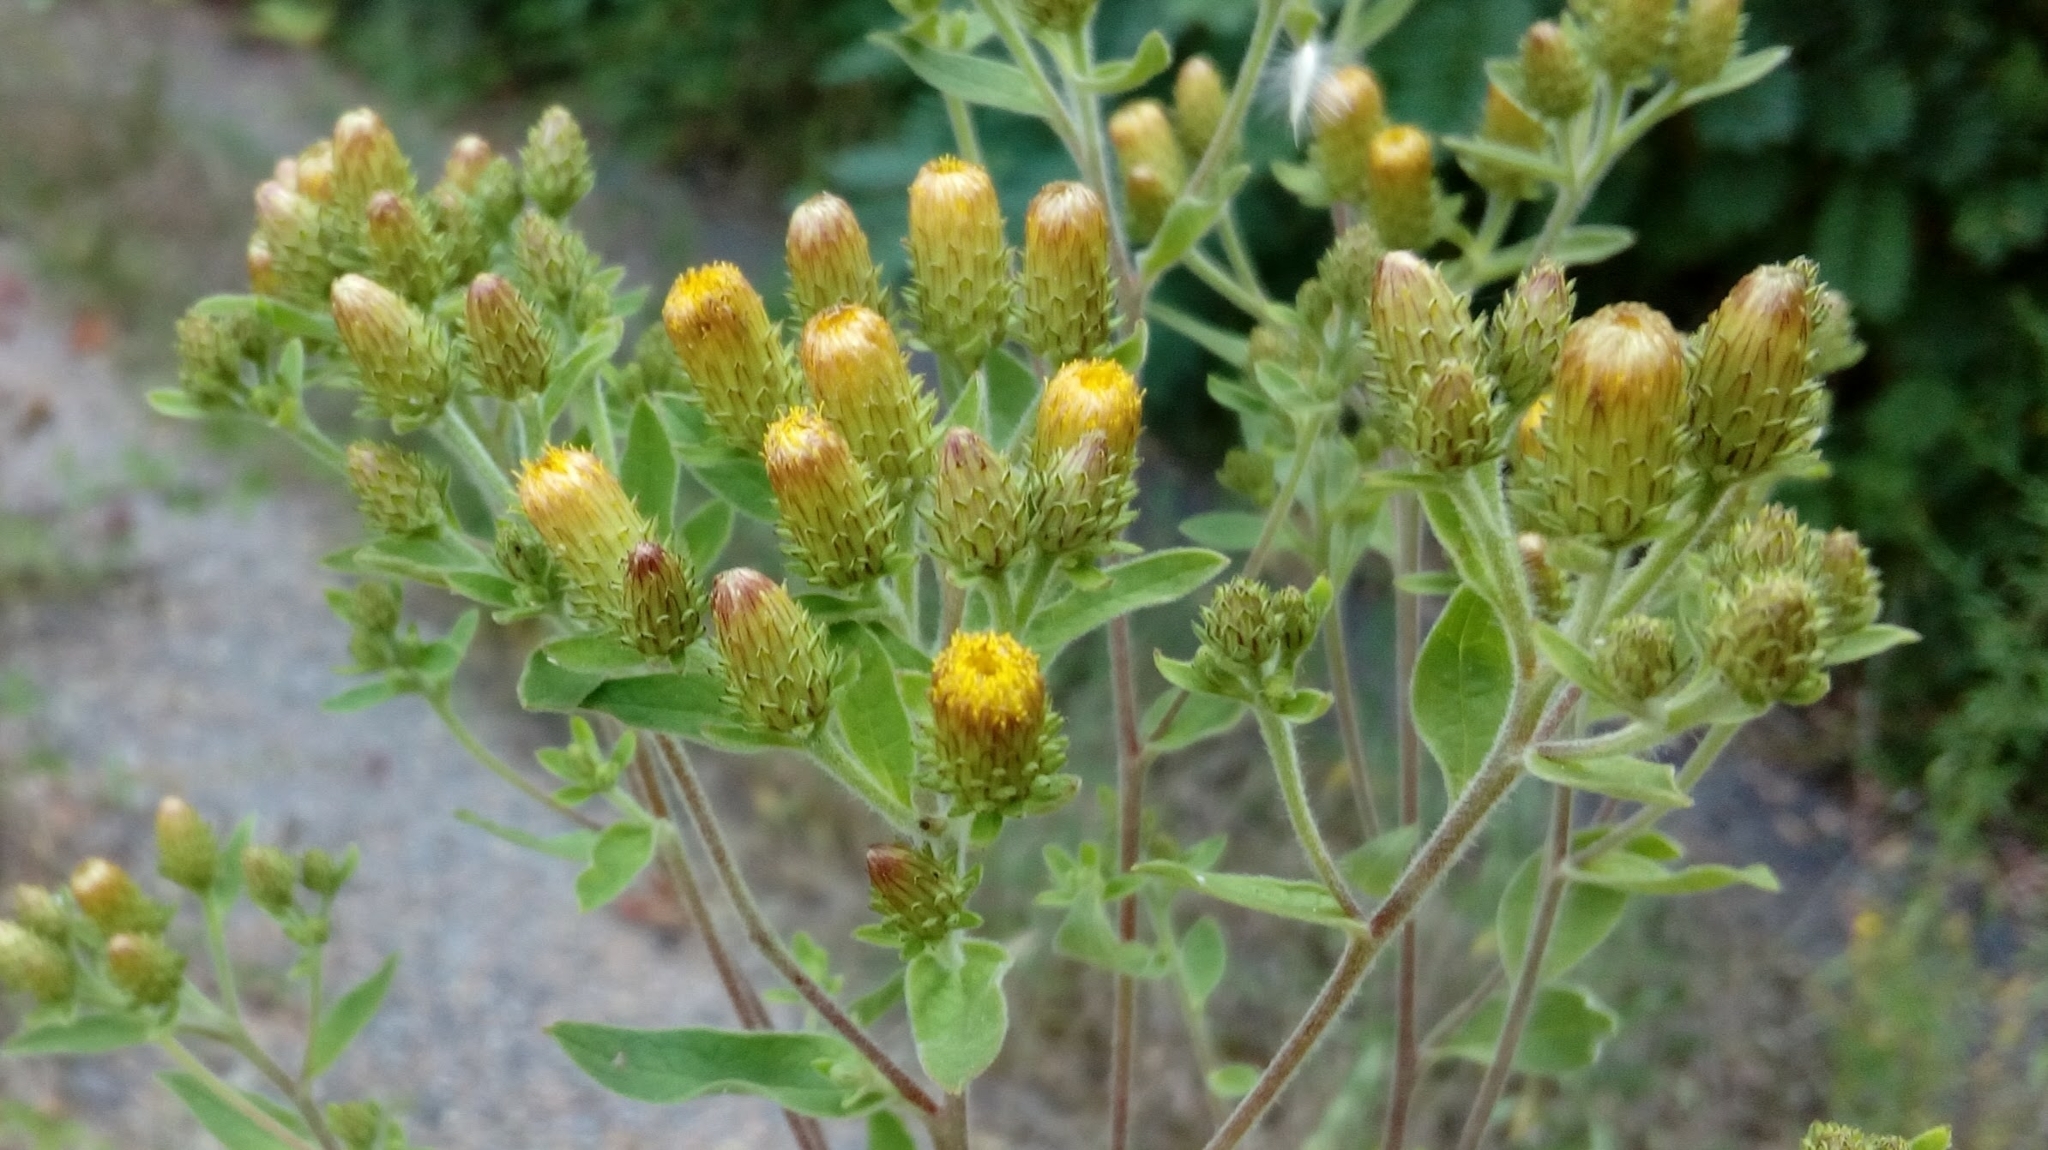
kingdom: Plantae
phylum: Tracheophyta
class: Magnoliopsida
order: Asterales
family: Asteraceae
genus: Pentanema
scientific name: Pentanema squarrosum
